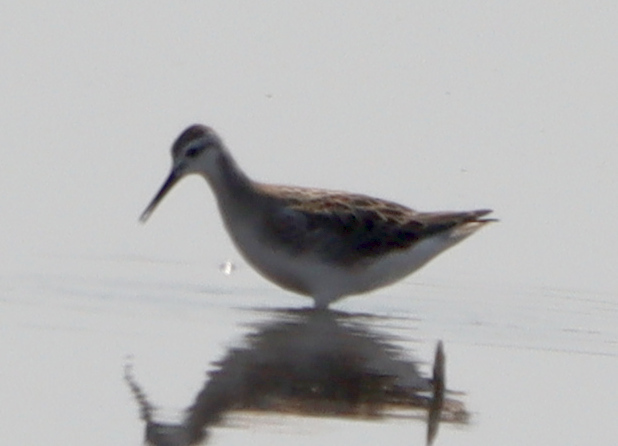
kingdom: Animalia
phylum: Chordata
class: Aves
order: Charadriiformes
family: Scolopacidae
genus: Phalaropus
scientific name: Phalaropus tricolor
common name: Wilson's phalarope
